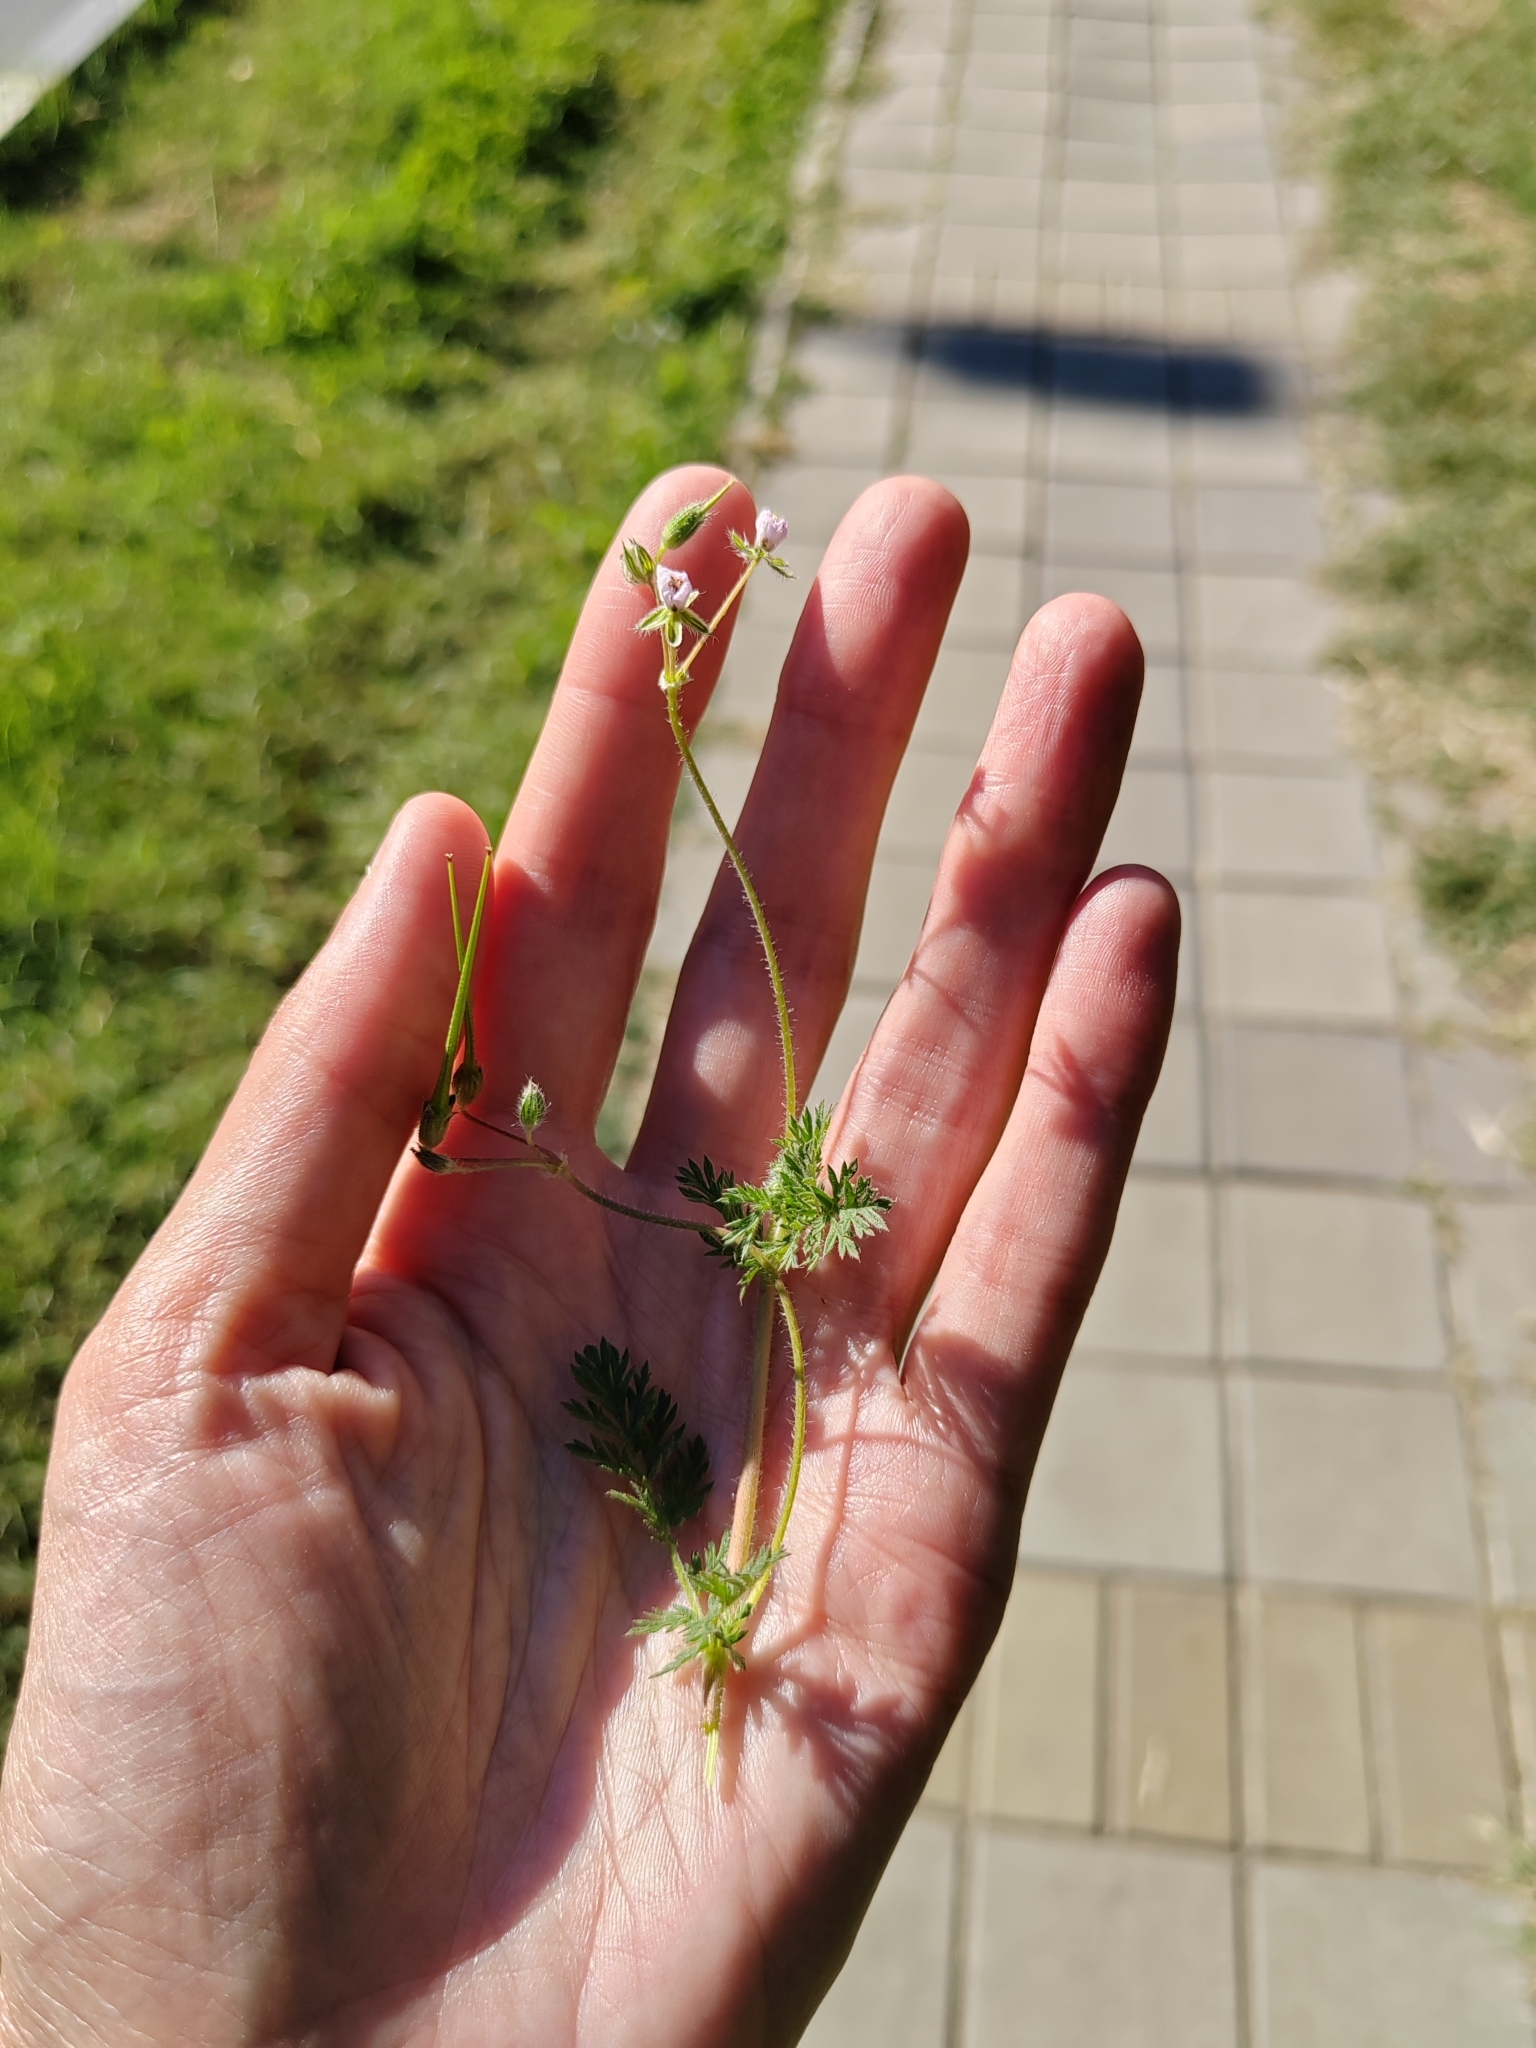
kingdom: Plantae
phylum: Tracheophyta
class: Magnoliopsida
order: Geraniales
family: Geraniaceae
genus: Erodium
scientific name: Erodium cicutarium
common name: Common stork's-bill
